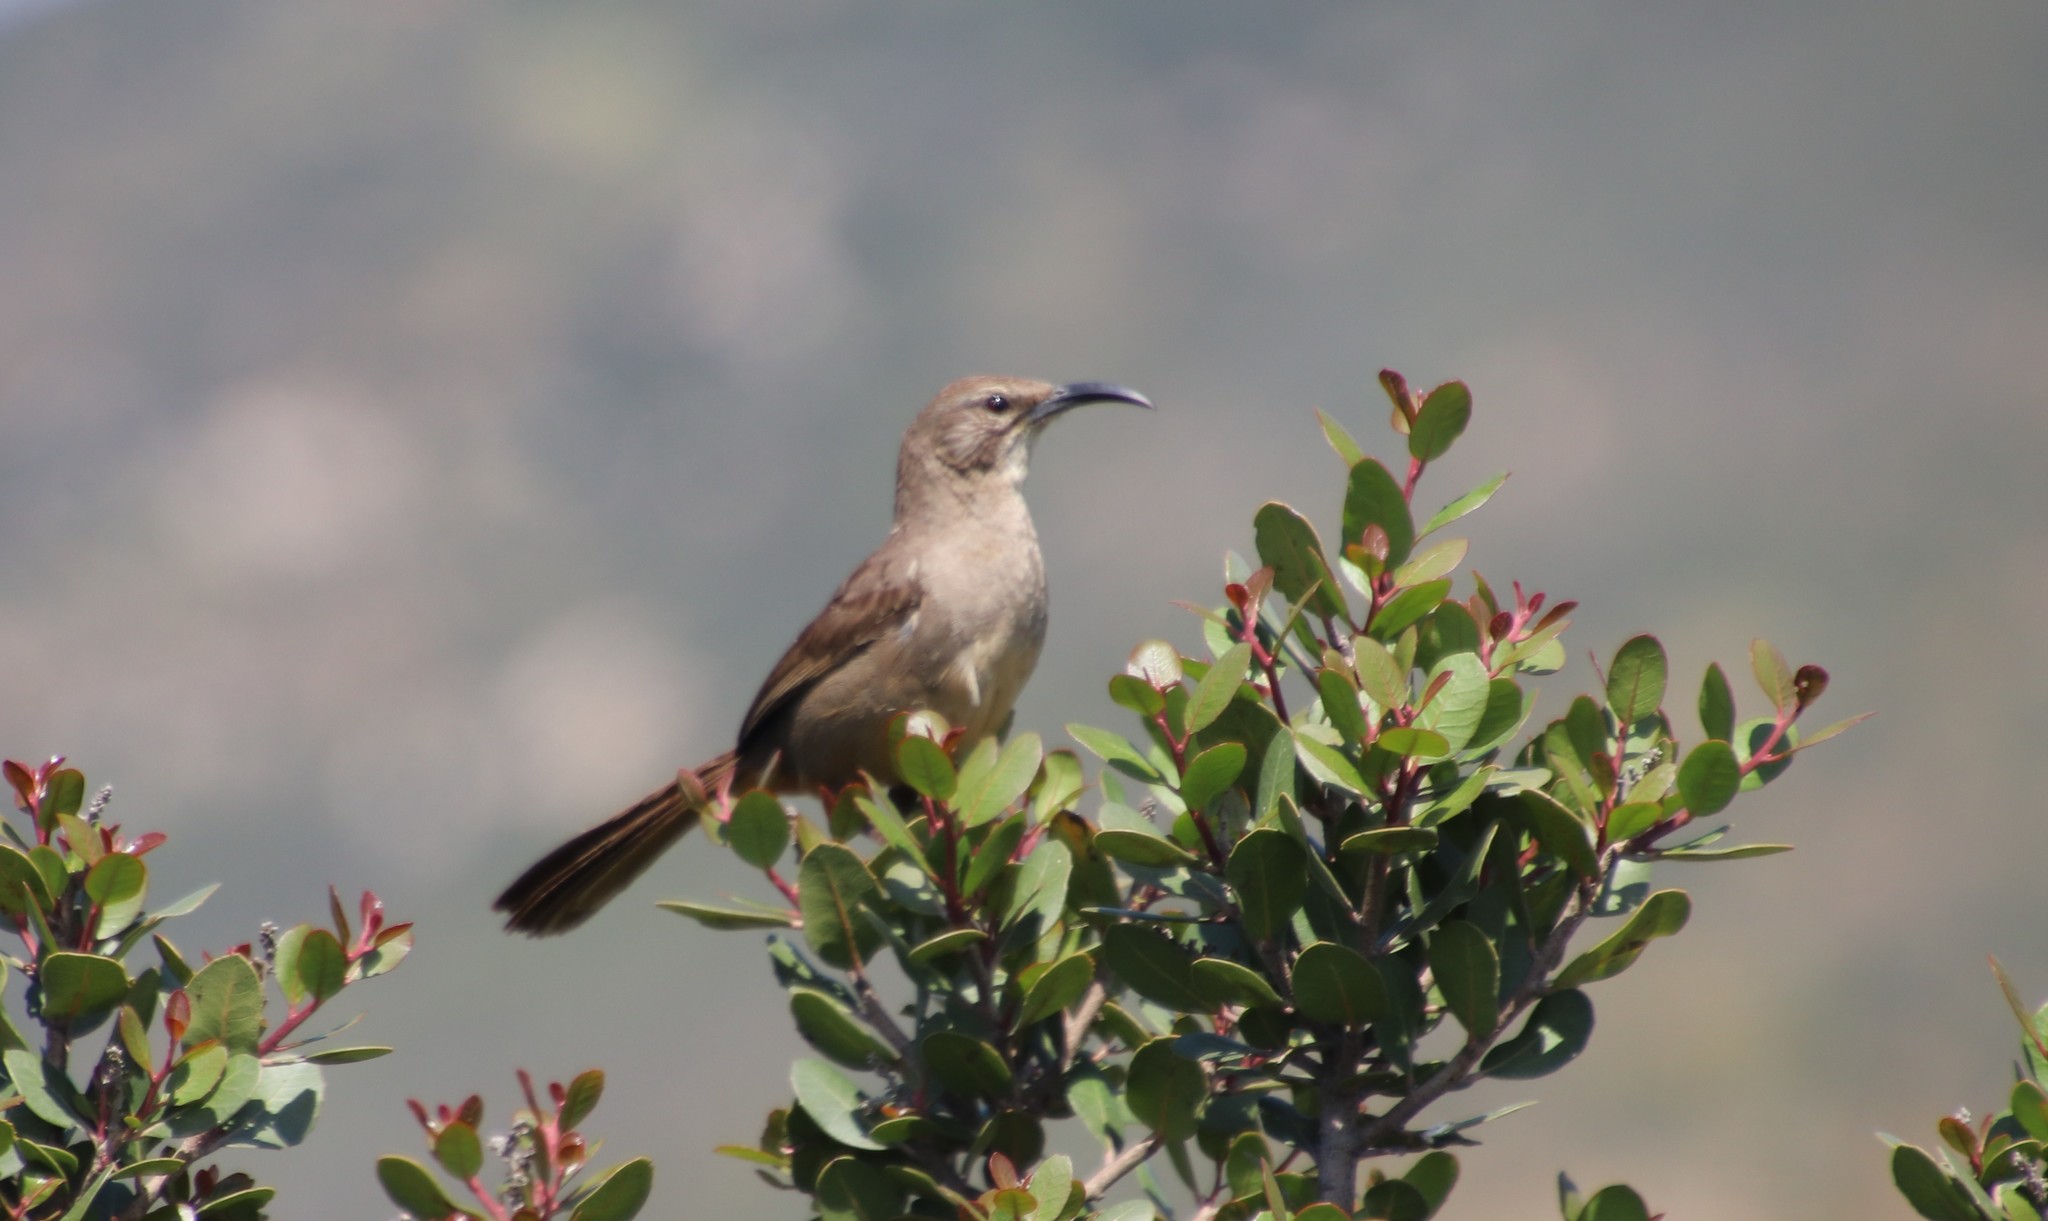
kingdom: Animalia
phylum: Chordata
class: Aves
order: Passeriformes
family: Mimidae
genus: Toxostoma
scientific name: Toxostoma redivivum
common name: California thrasher
